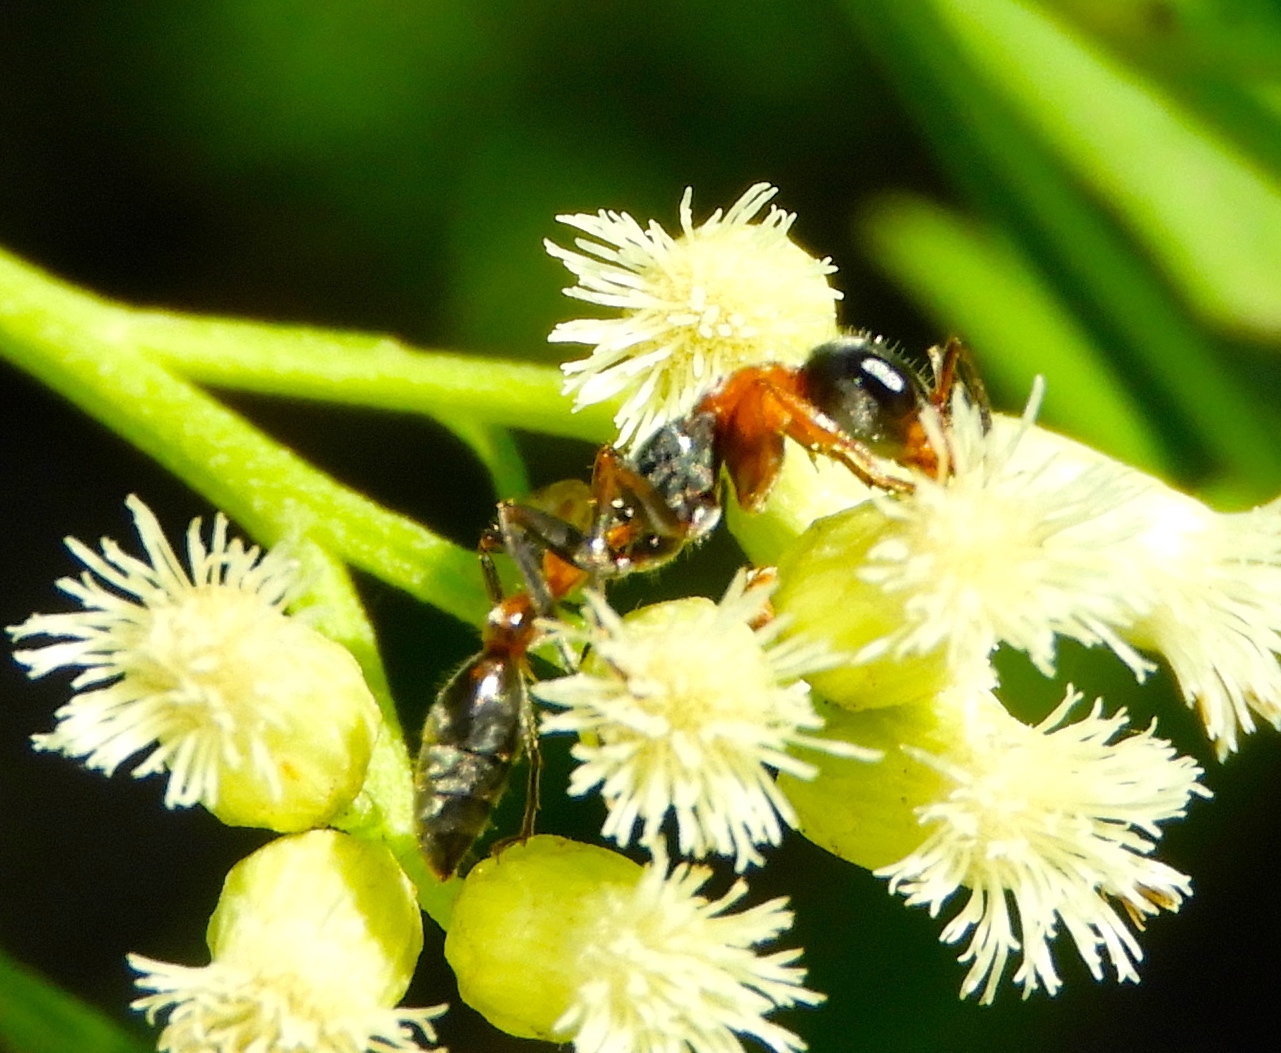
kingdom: Animalia
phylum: Arthropoda
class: Insecta
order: Hymenoptera
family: Formicidae
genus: Pseudomyrmex
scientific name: Pseudomyrmex gracilis
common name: Graceful twig ant
